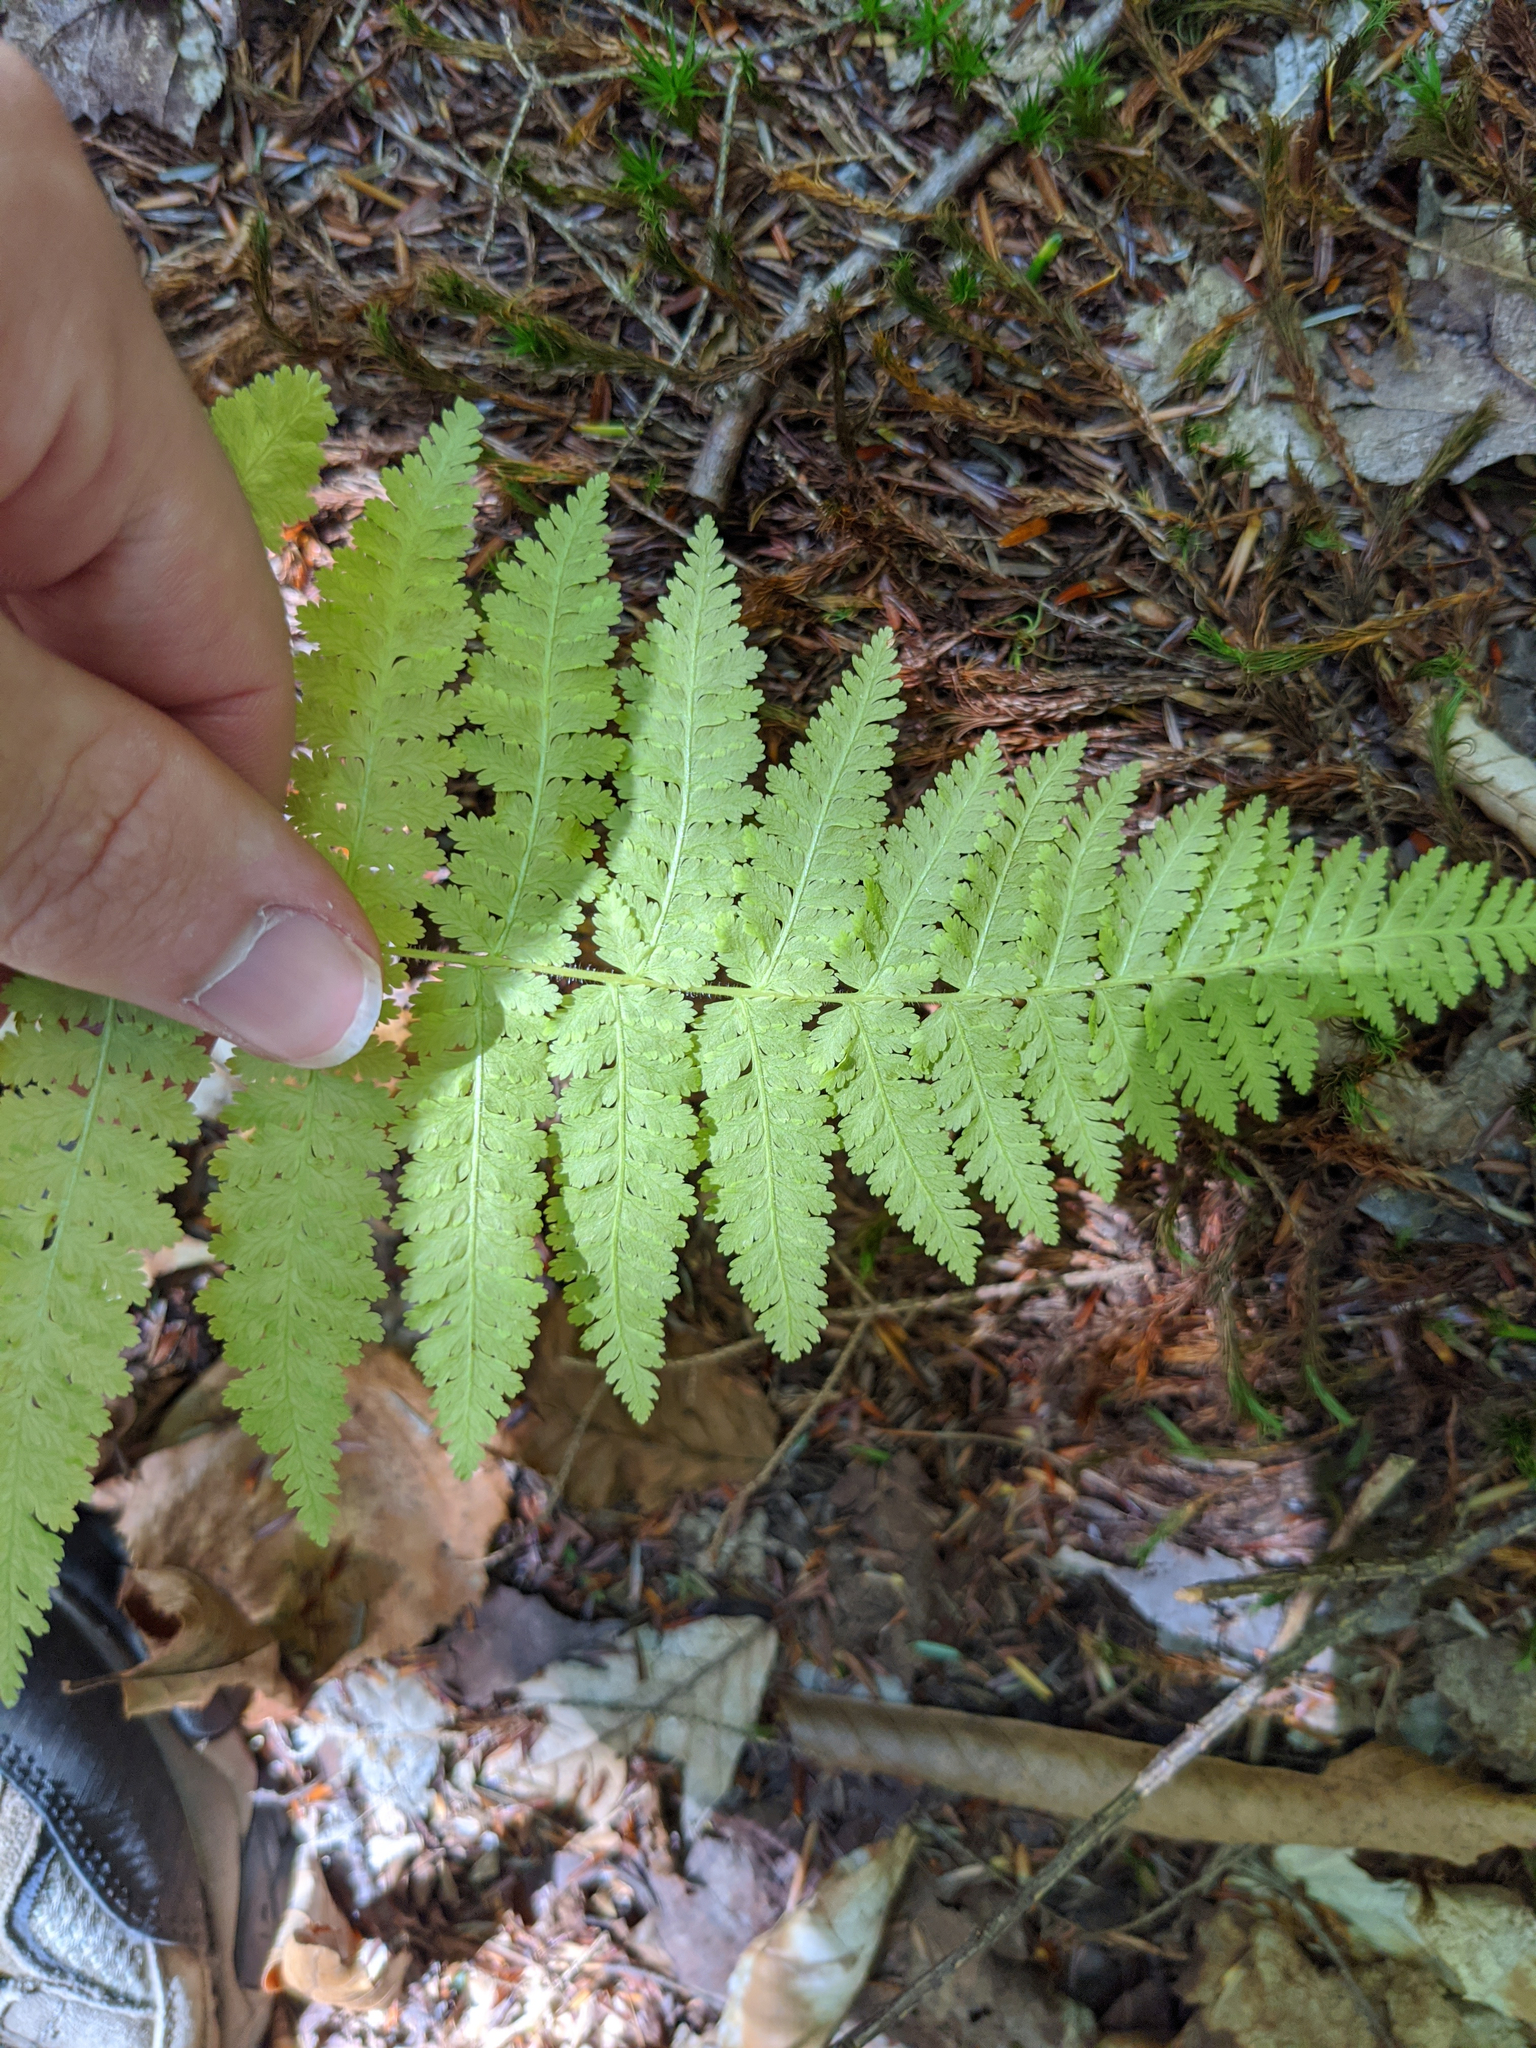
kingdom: Plantae
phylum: Tracheophyta
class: Polypodiopsida
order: Polypodiales
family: Dennstaedtiaceae
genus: Sitobolium
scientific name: Sitobolium punctilobum
